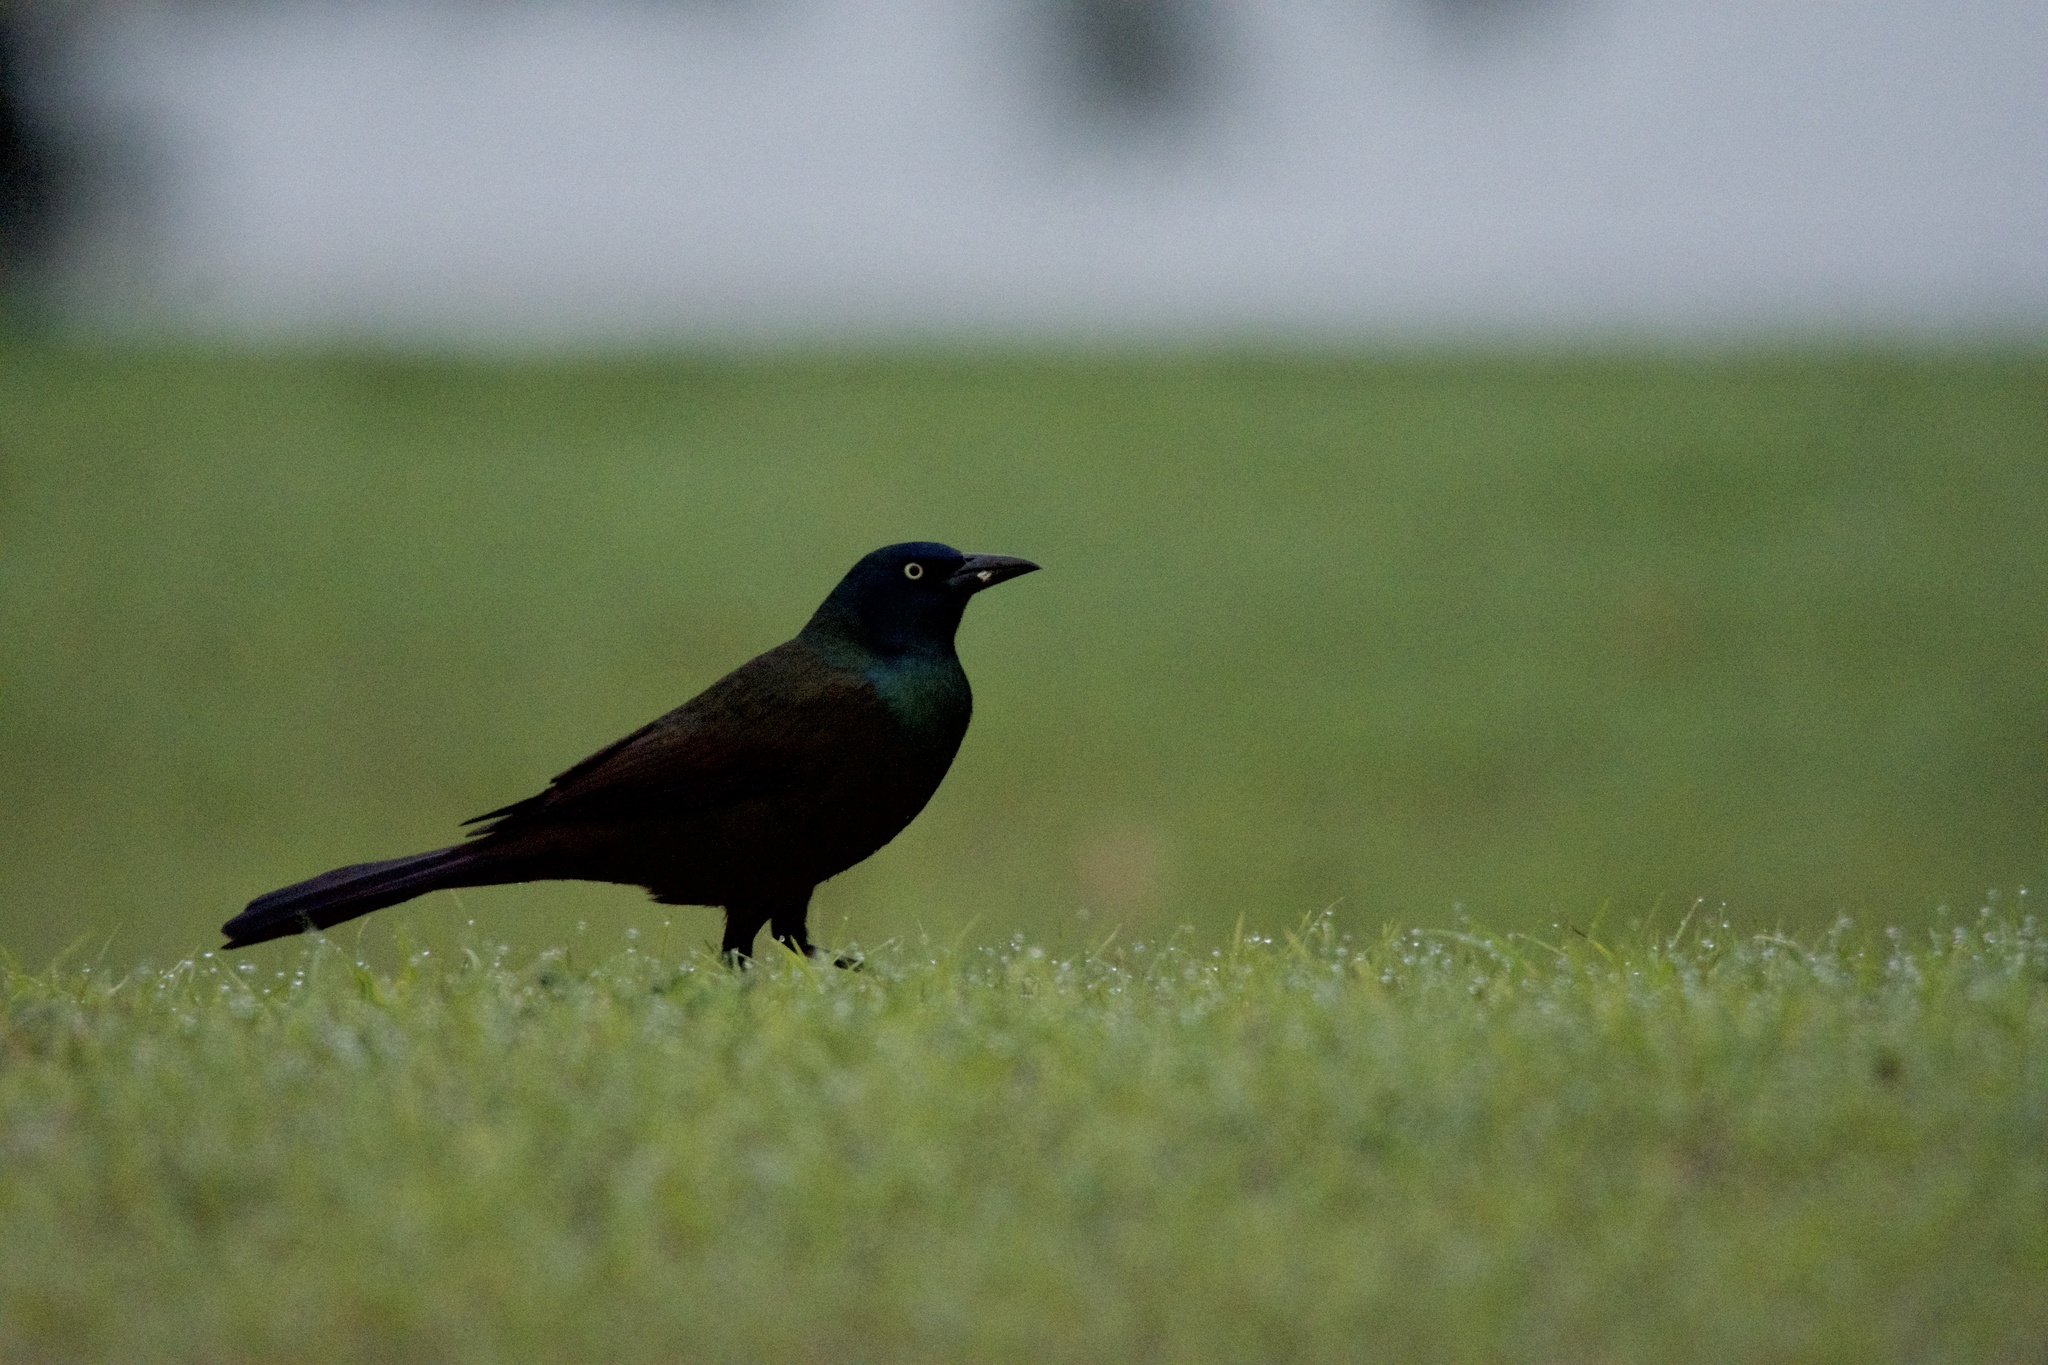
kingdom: Animalia
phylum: Chordata
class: Aves
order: Passeriformes
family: Icteridae
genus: Quiscalus
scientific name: Quiscalus quiscula
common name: Common grackle
